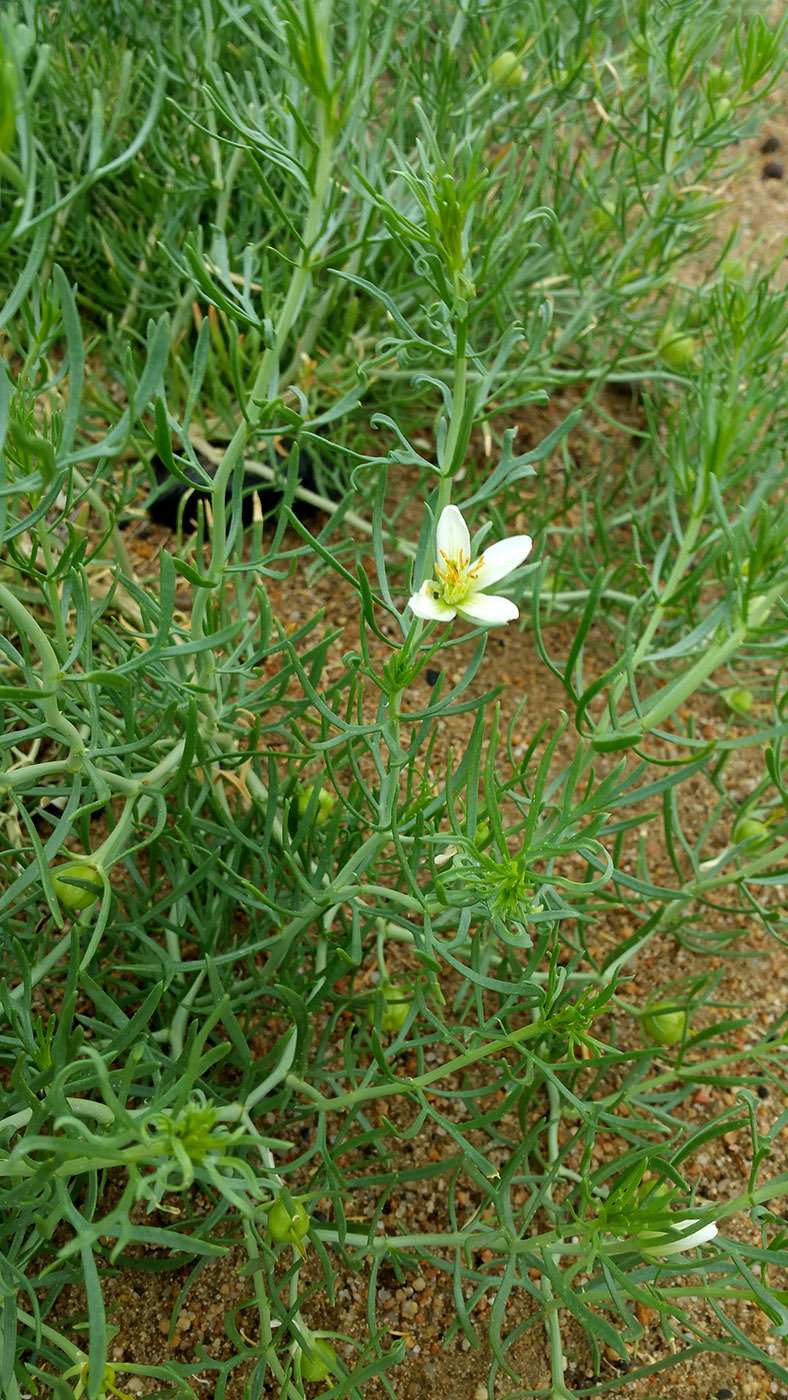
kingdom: Plantae
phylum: Tracheophyta
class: Magnoliopsida
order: Sapindales
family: Tetradiclidaceae
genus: Peganum
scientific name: Peganum multisectum
